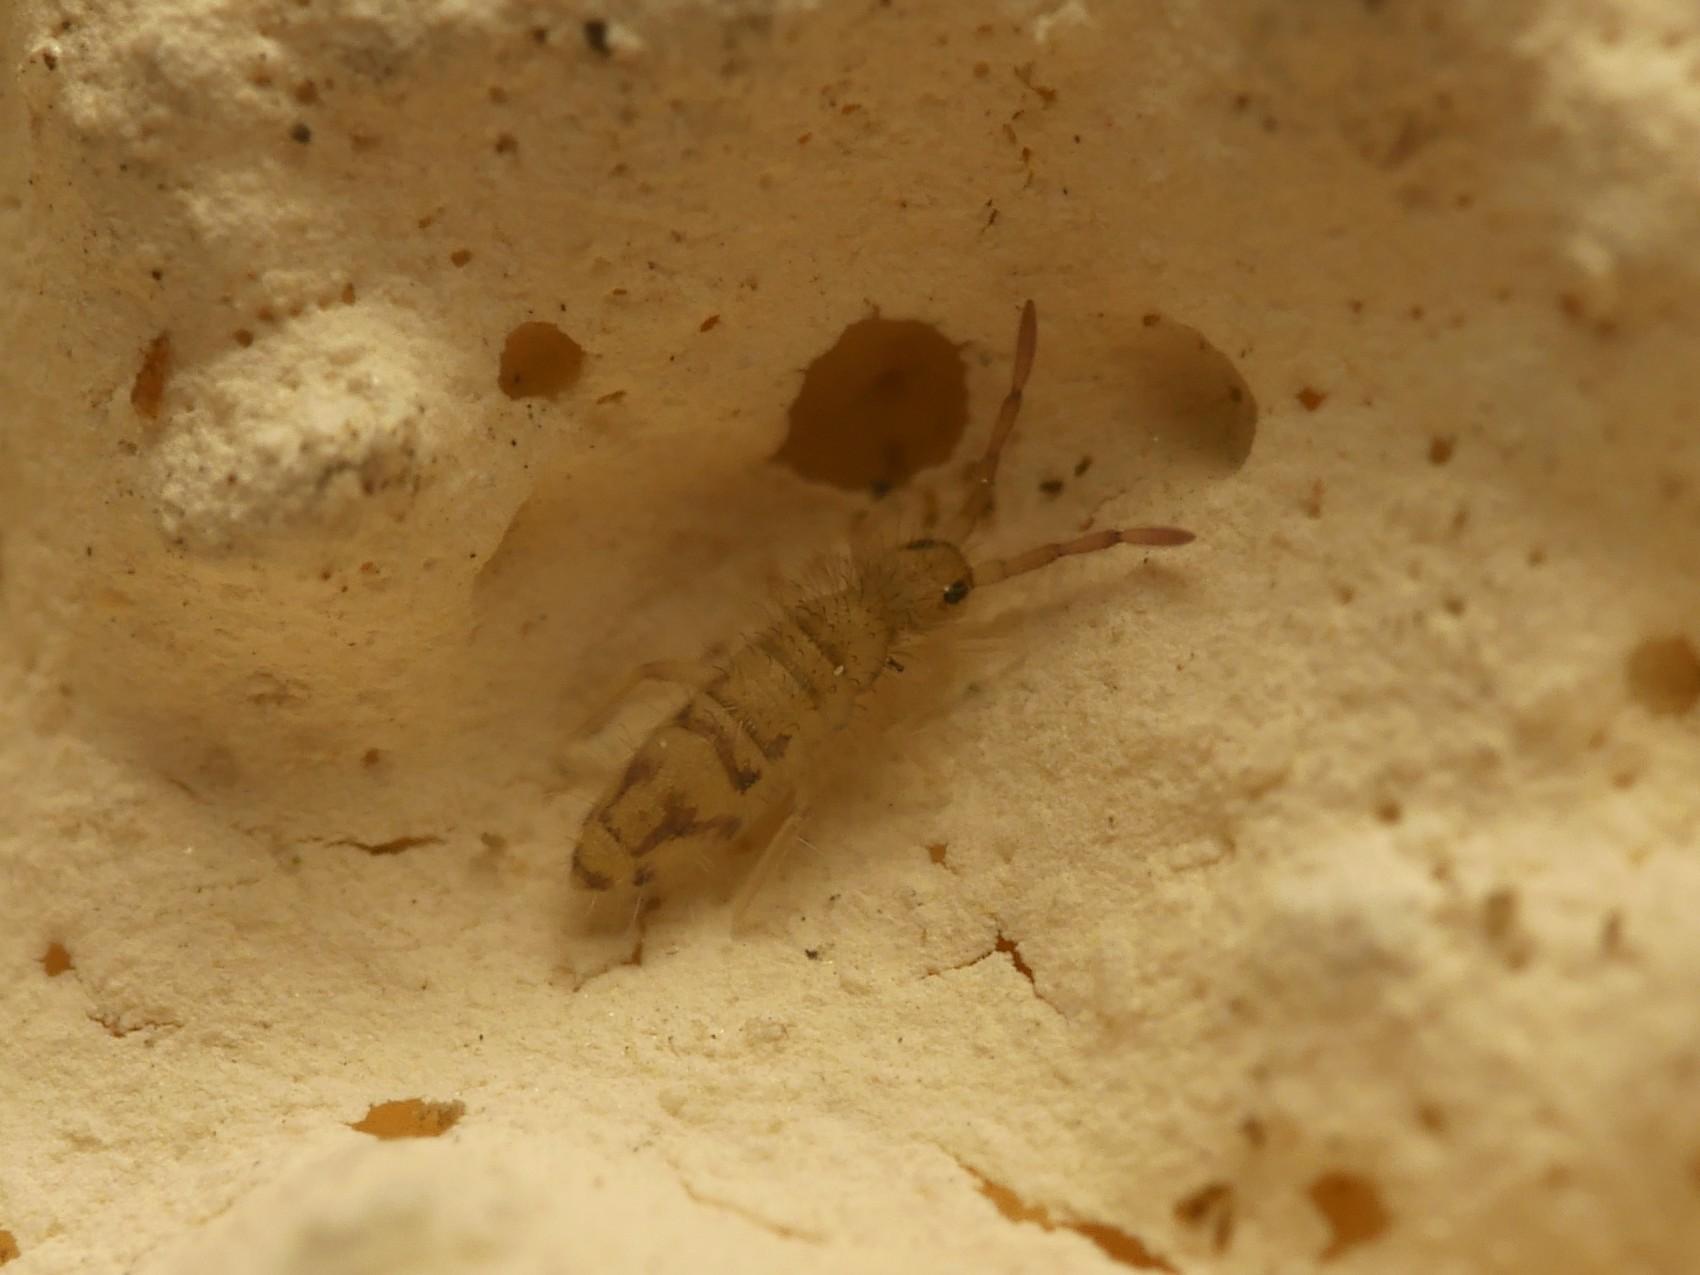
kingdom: Animalia
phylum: Arthropoda
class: Collembola
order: Entomobryomorpha
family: Entomobryidae
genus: Entomobrya
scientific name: Entomobrya nivalis
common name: Cosmopolitan springtail
